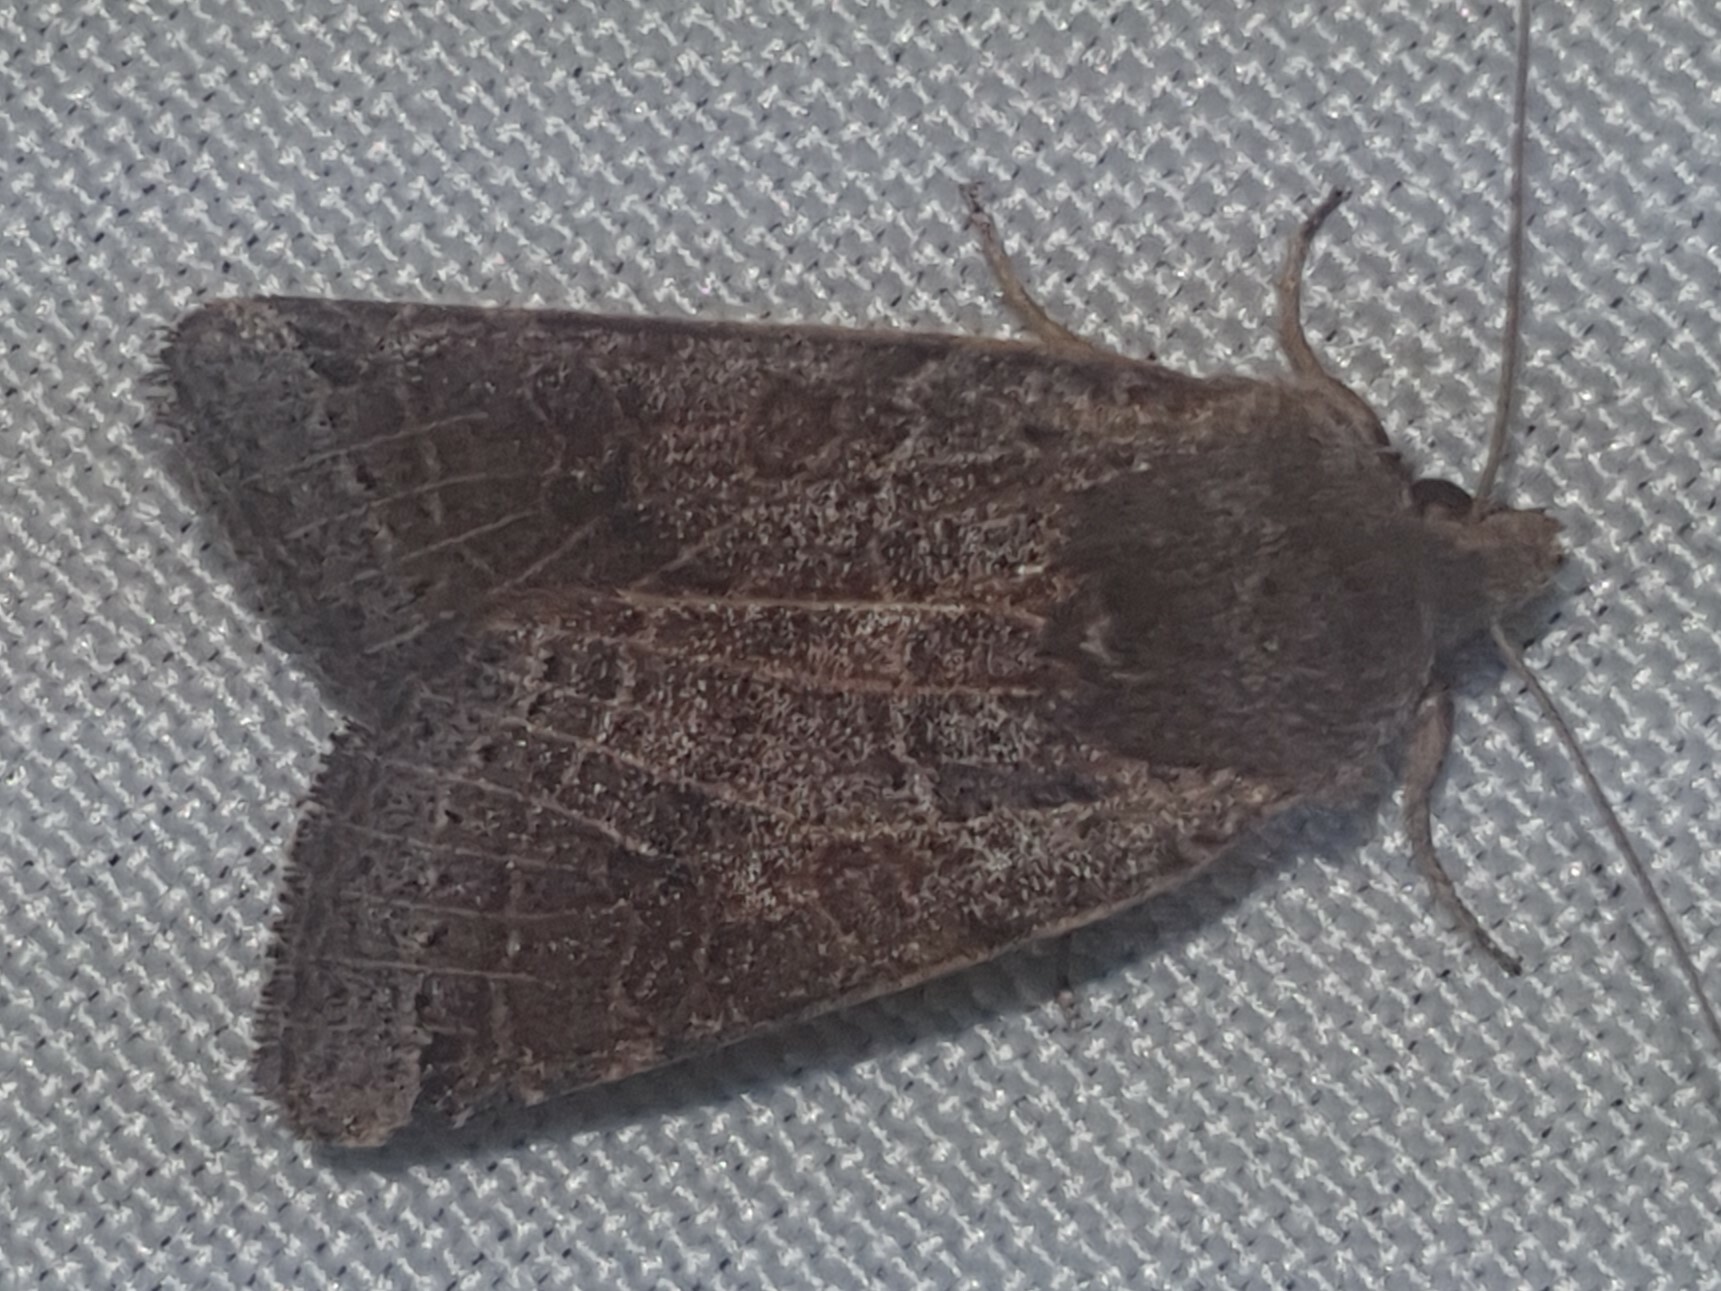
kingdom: Animalia
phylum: Arthropoda
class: Insecta
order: Lepidoptera
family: Noctuidae
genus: Agrochola
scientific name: Agrochola lunosa
